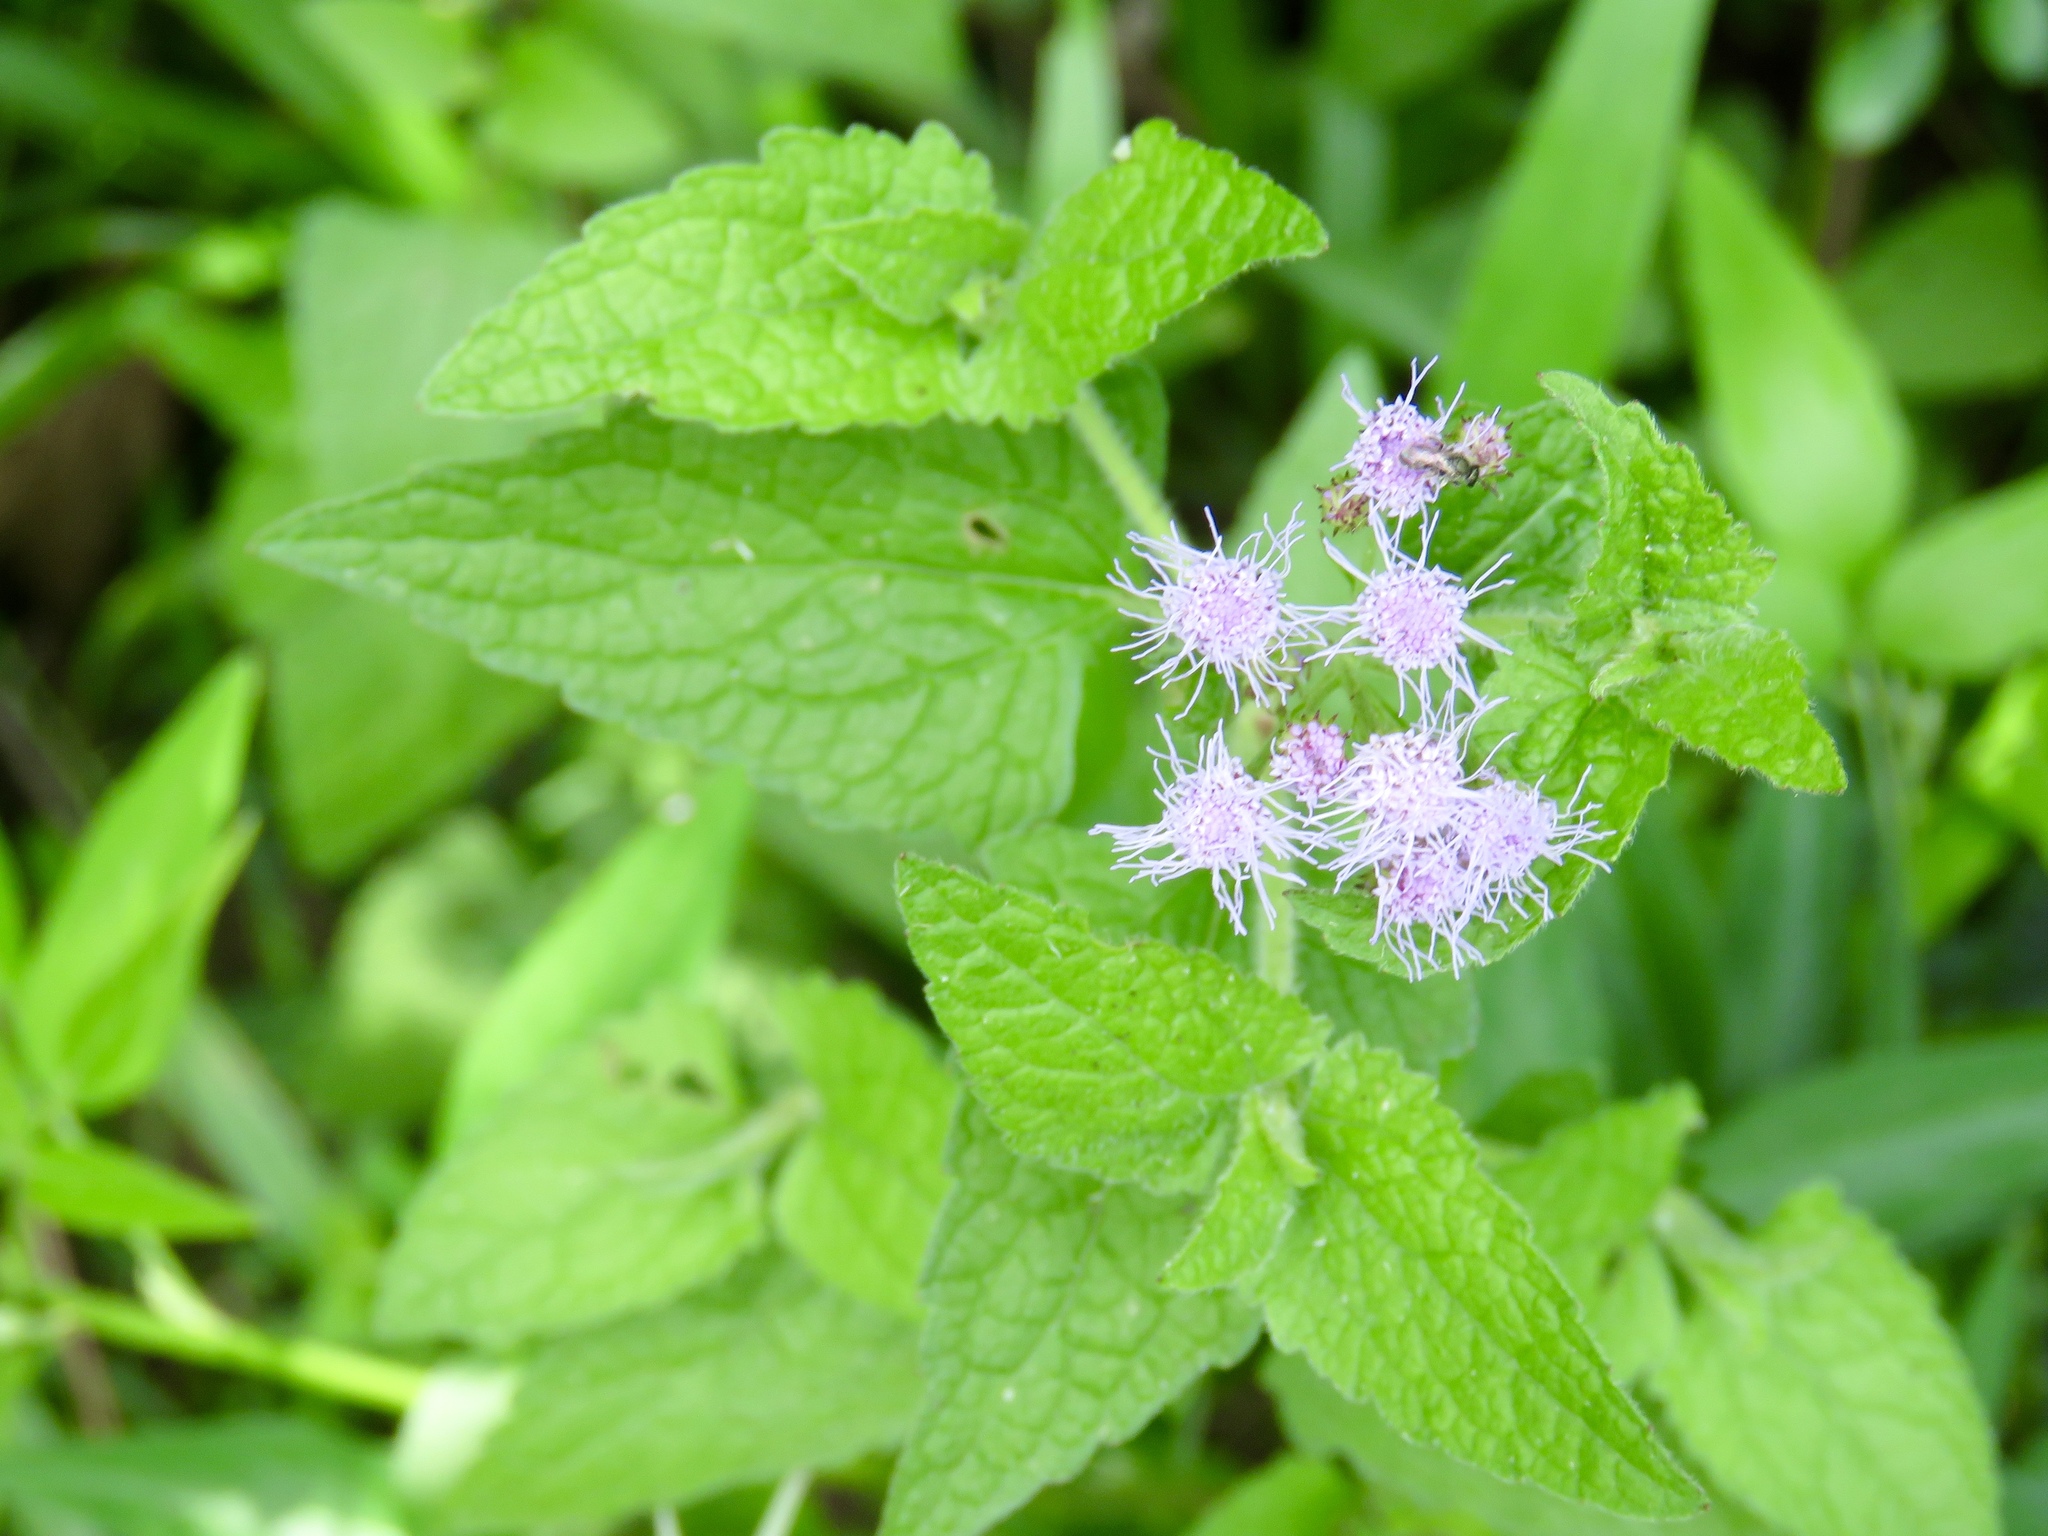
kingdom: Plantae
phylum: Tracheophyta
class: Magnoliopsida
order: Asterales
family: Asteraceae
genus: Conoclinium
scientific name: Conoclinium coelestinum
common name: Blue mistflower
